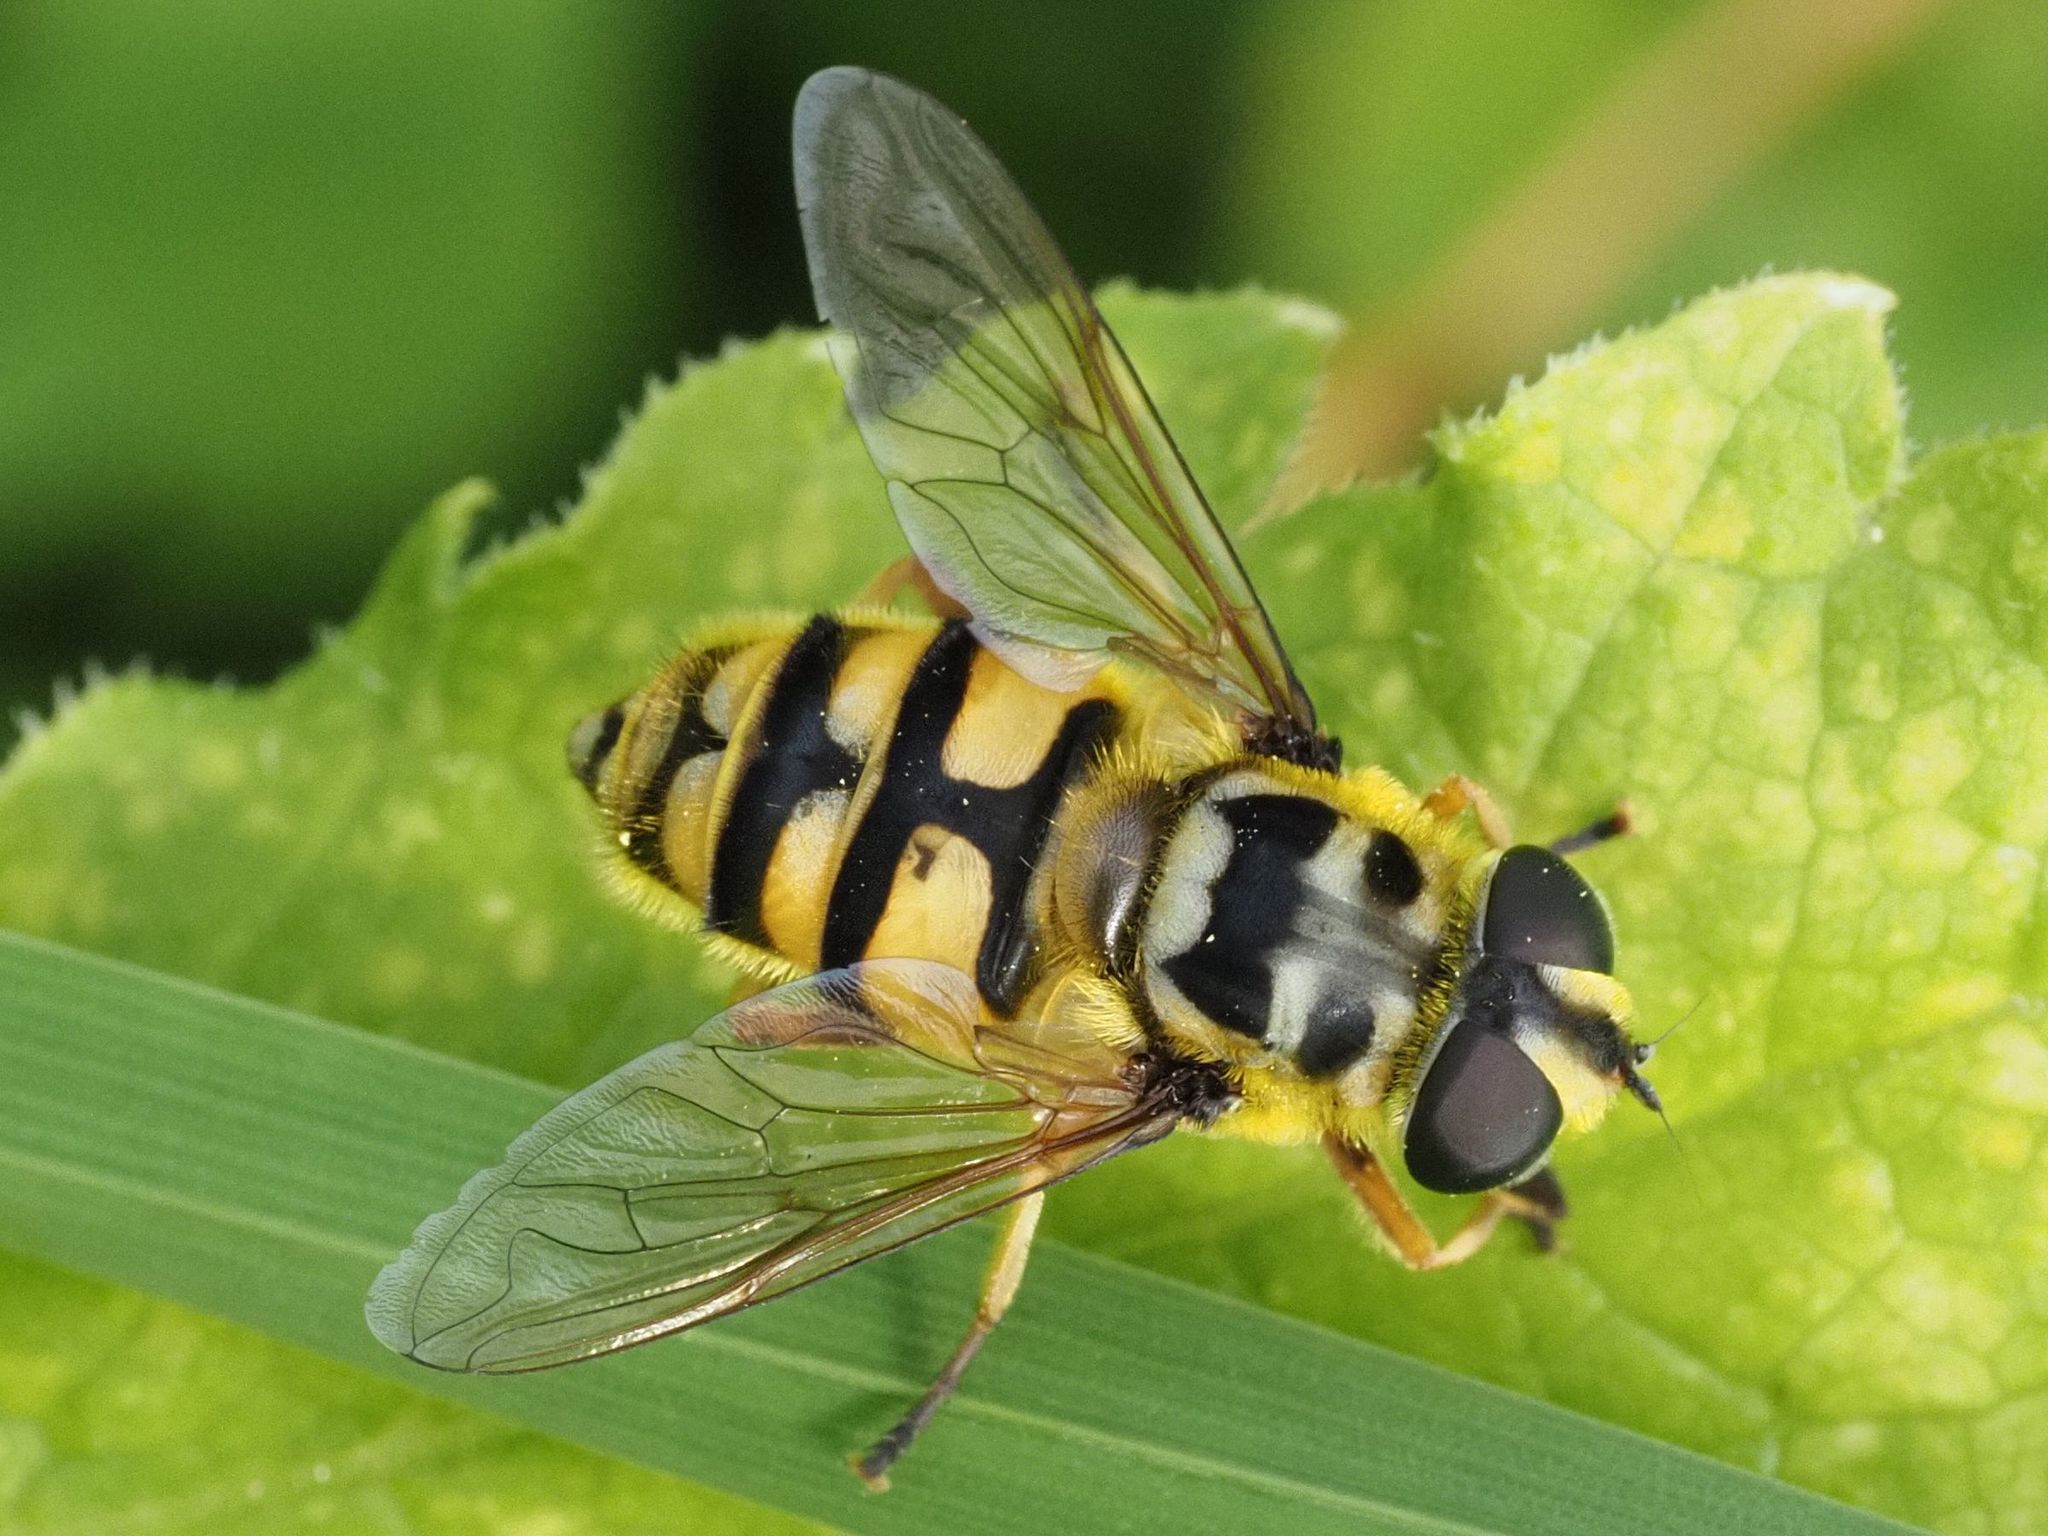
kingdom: Animalia
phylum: Arthropoda
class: Insecta
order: Diptera
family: Syrphidae
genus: Myathropa
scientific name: Myathropa florea
